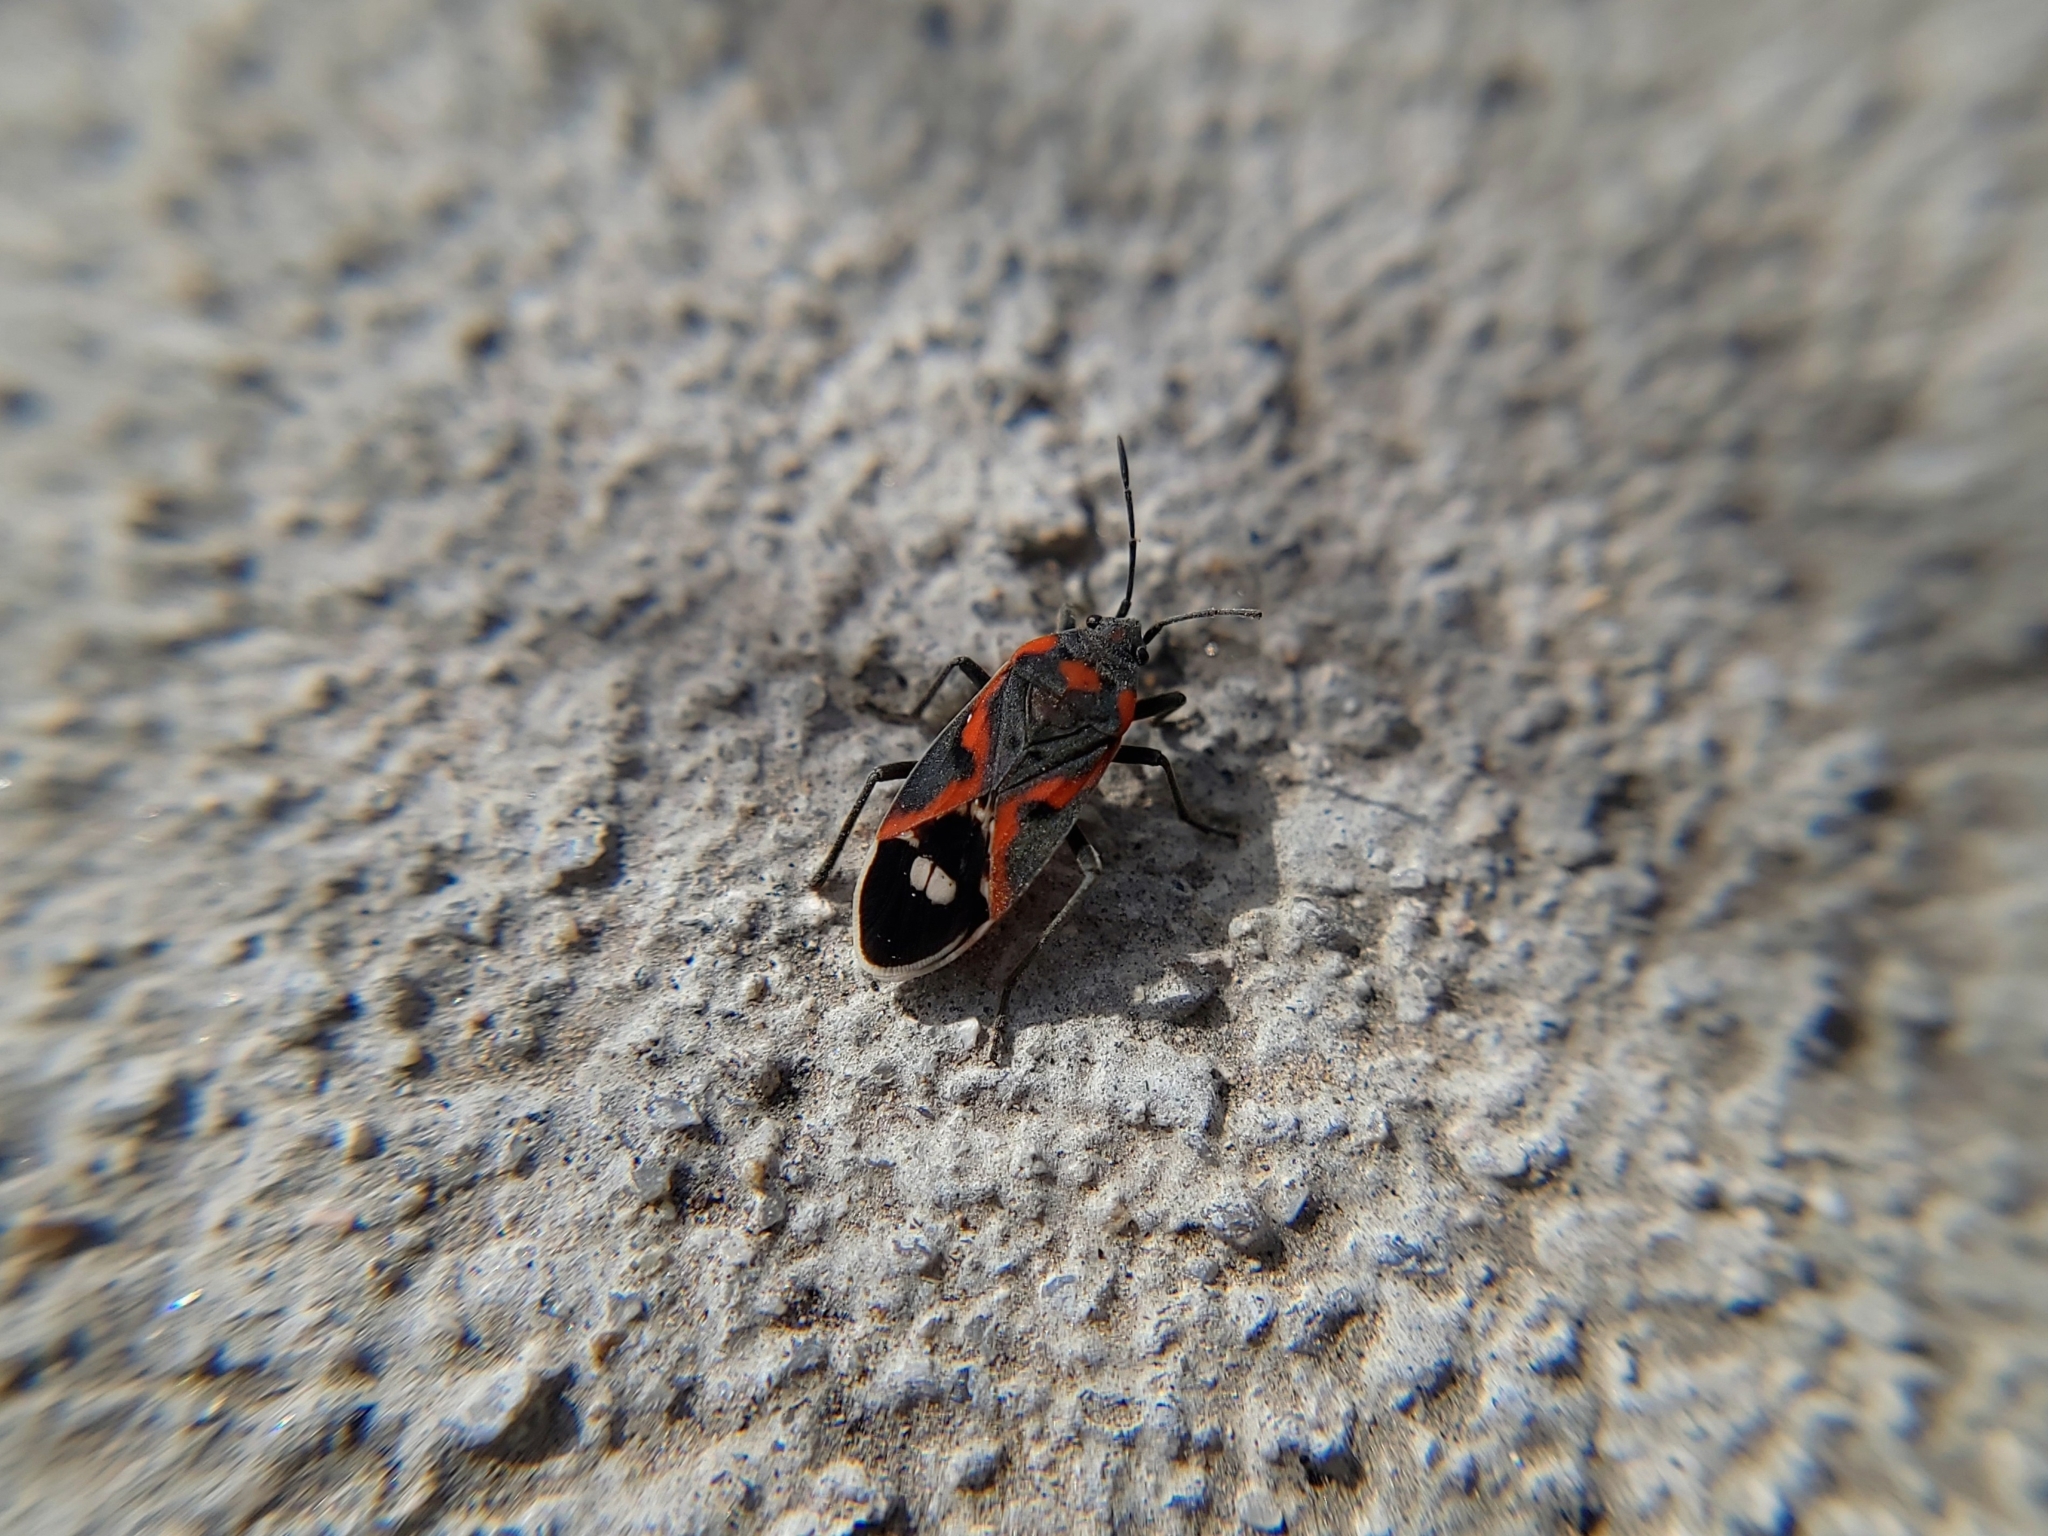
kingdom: Animalia
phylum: Arthropoda
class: Insecta
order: Hemiptera
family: Lygaeidae
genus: Lygaeus
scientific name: Lygaeus kalmii
